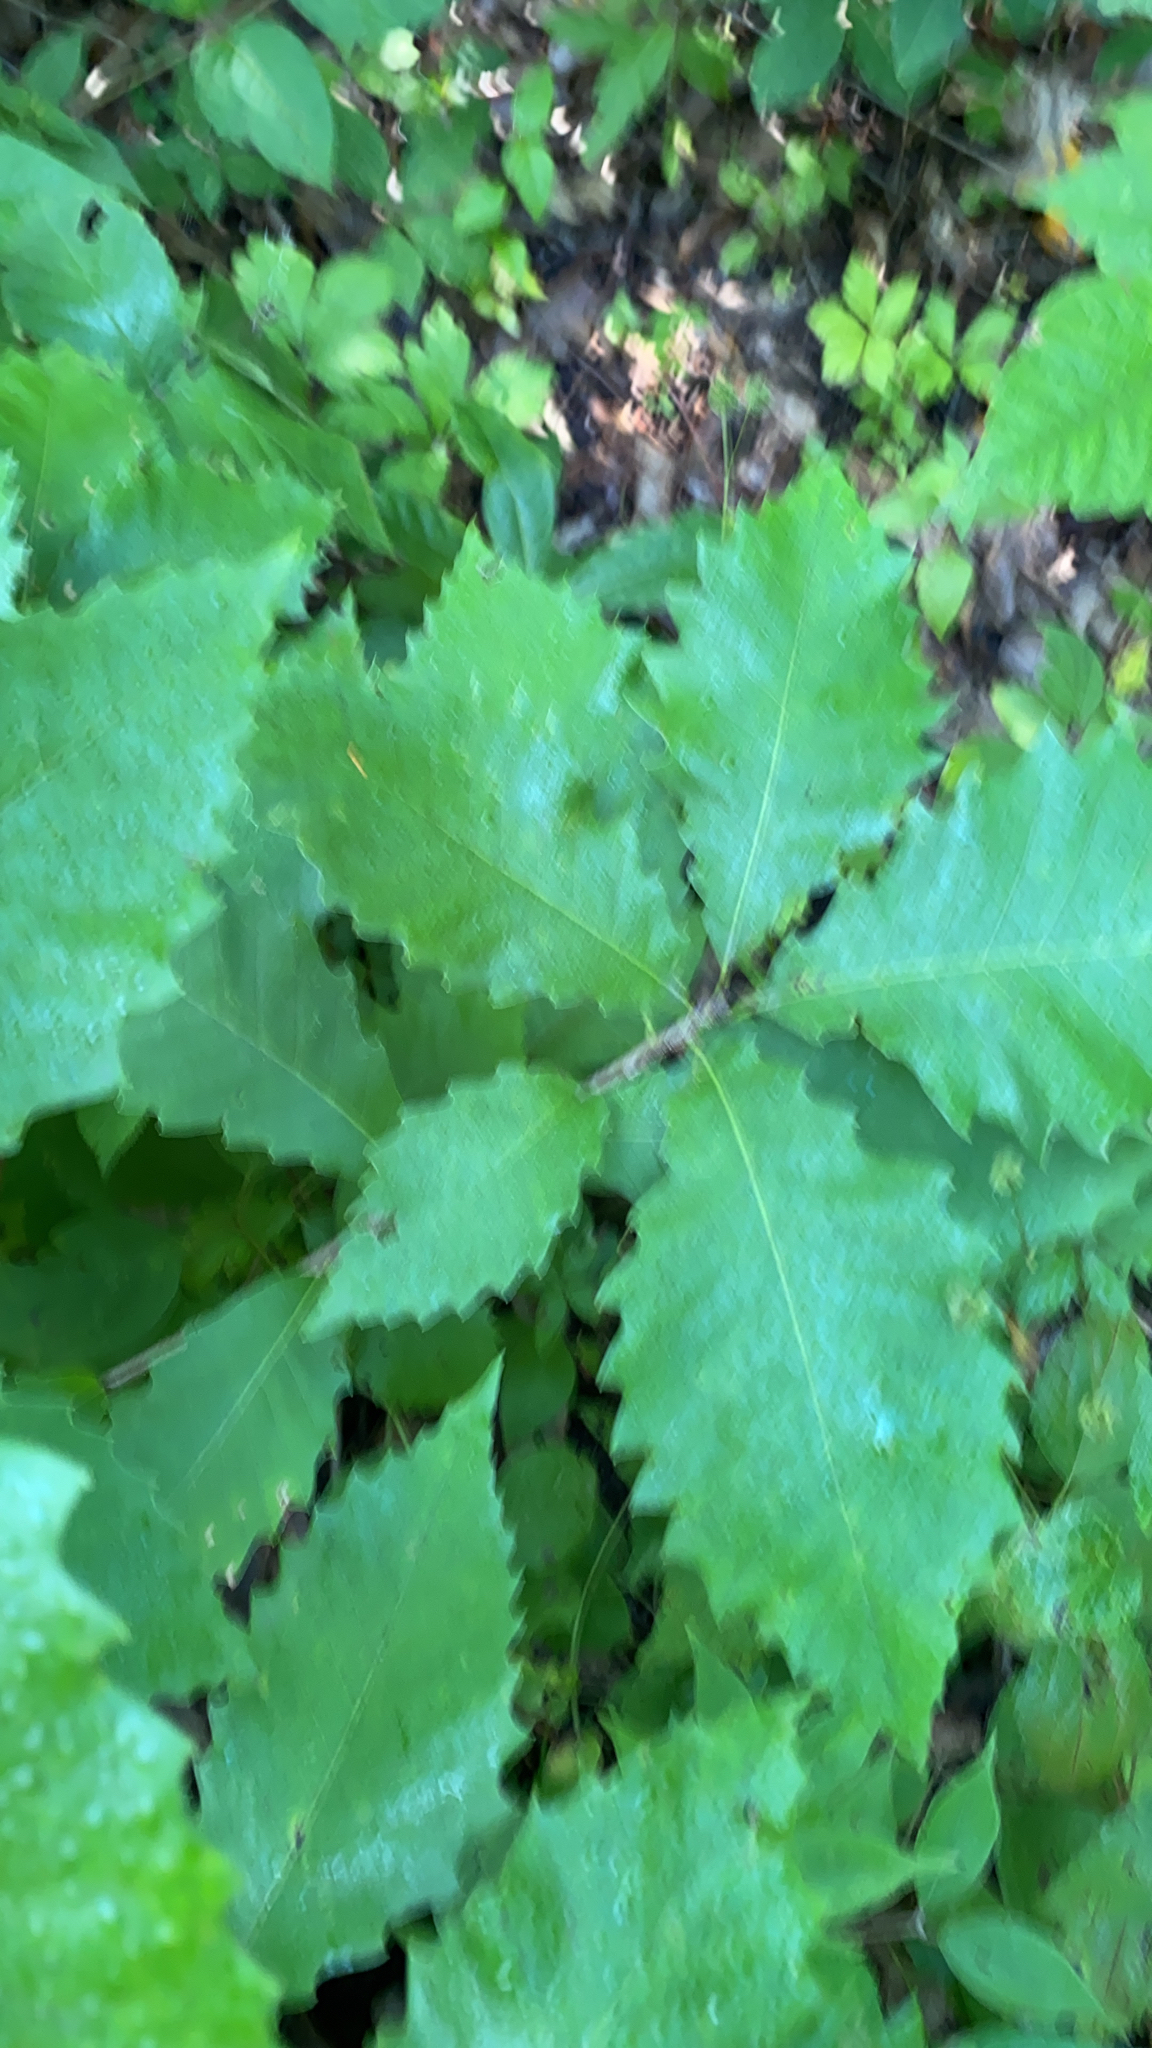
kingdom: Plantae
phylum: Tracheophyta
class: Magnoliopsida
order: Fagales
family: Fagaceae
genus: Quercus
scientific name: Quercus muehlenbergii
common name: Chinkapin oak
